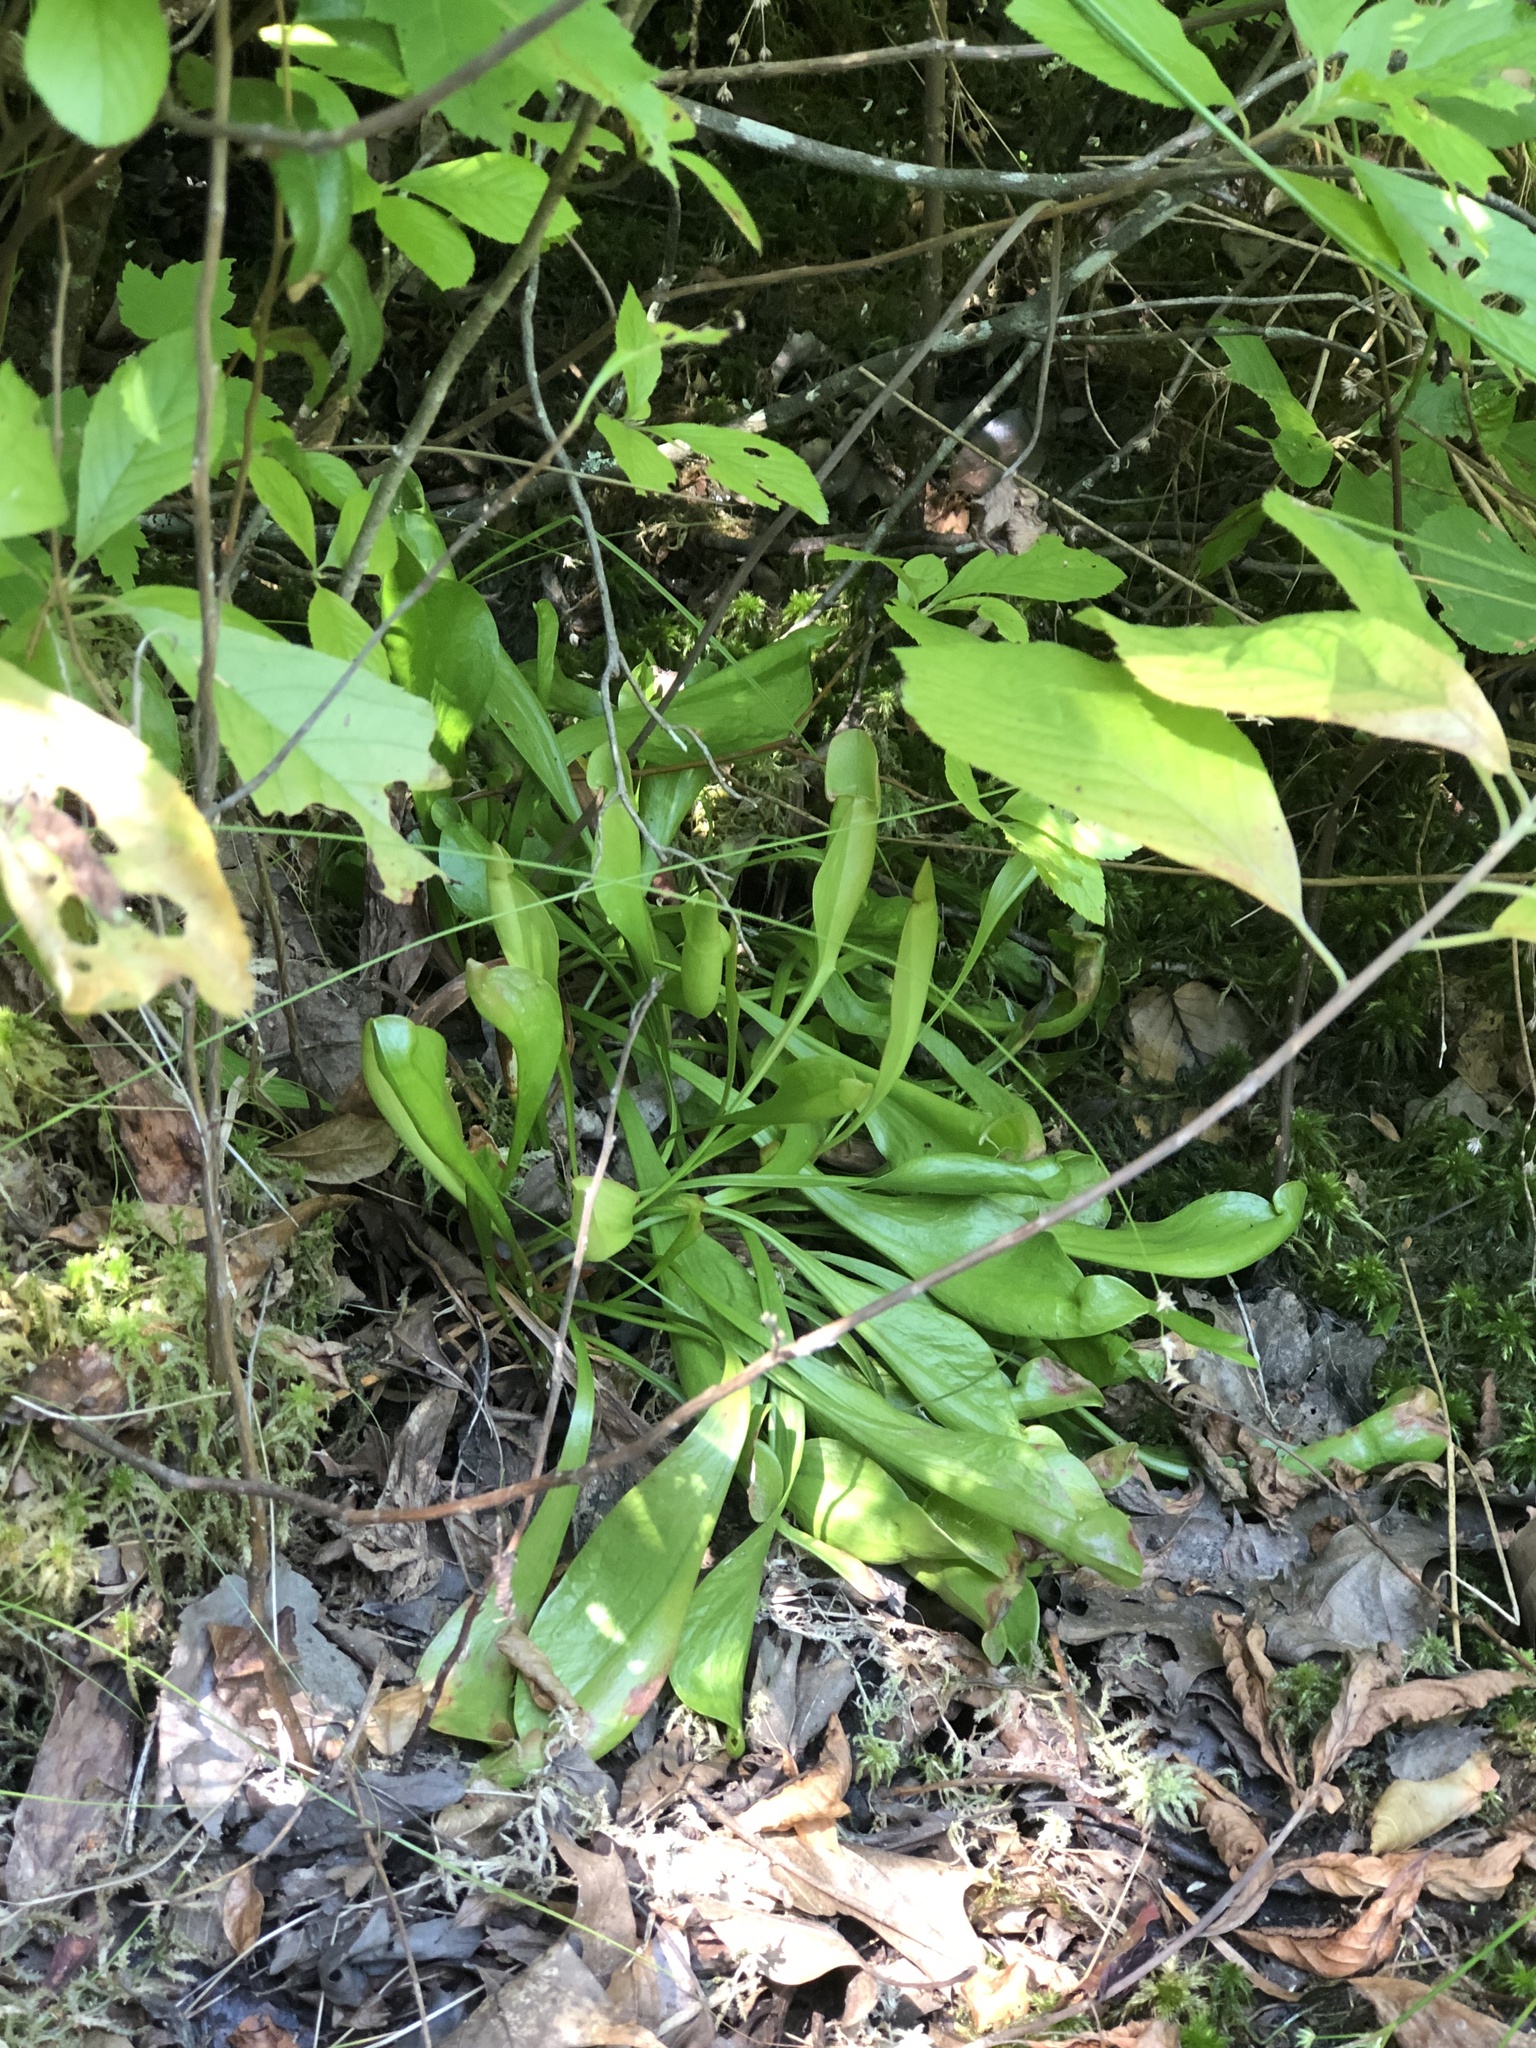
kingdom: Plantae
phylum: Tracheophyta
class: Magnoliopsida
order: Ericales
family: Sarraceniaceae
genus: Sarracenia
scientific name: Sarracenia purpurea
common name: Pitcherplant
